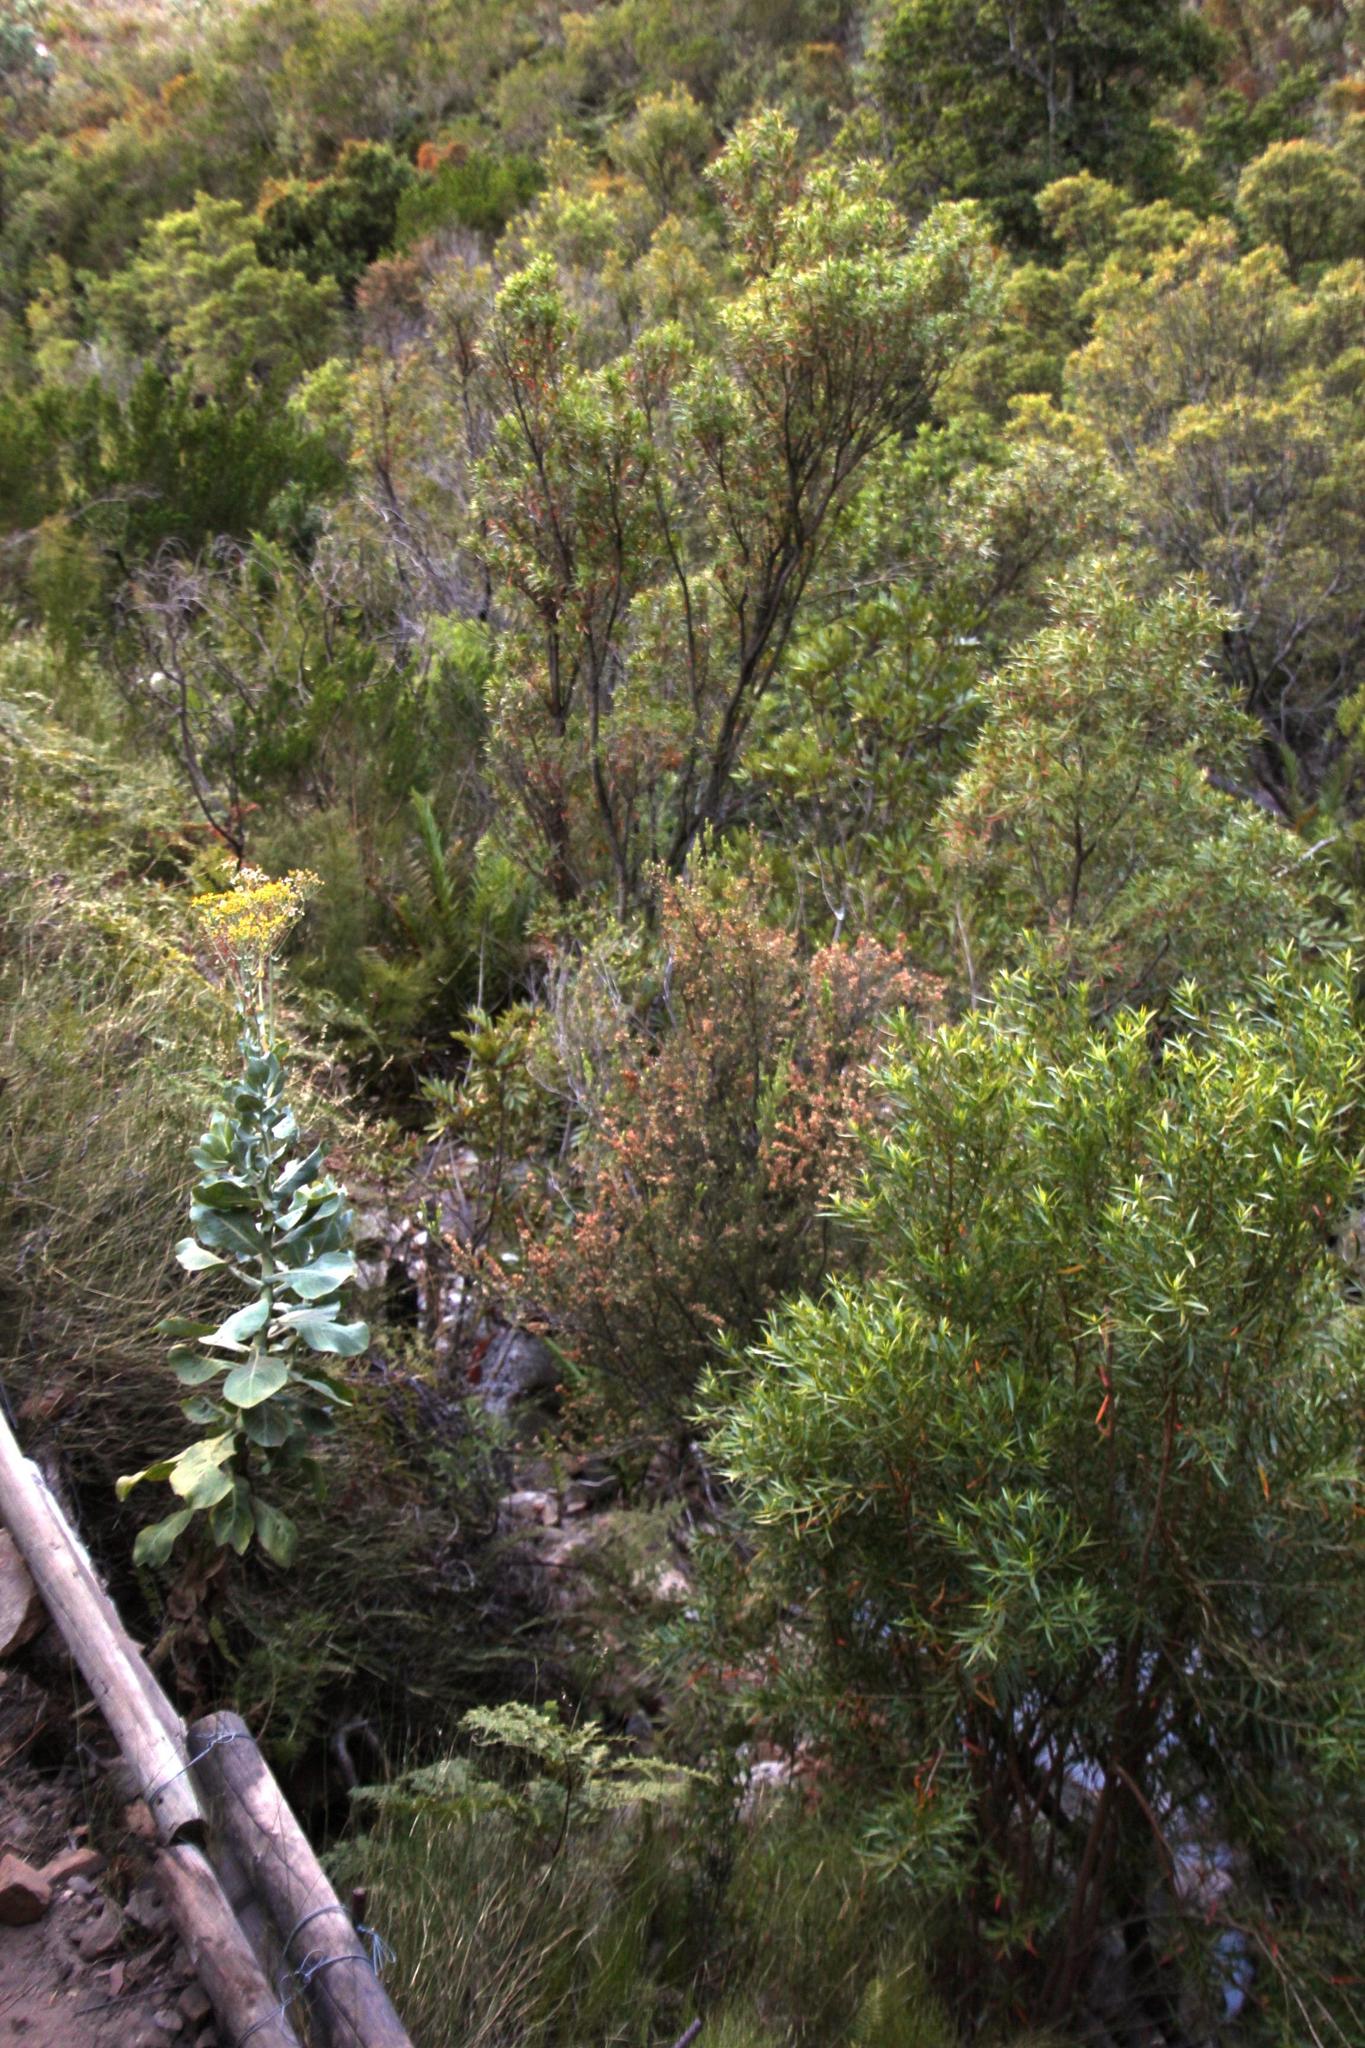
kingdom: Plantae
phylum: Tracheophyta
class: Magnoliopsida
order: Asterales
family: Asteraceae
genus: Othonna
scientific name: Othonna parviflora
